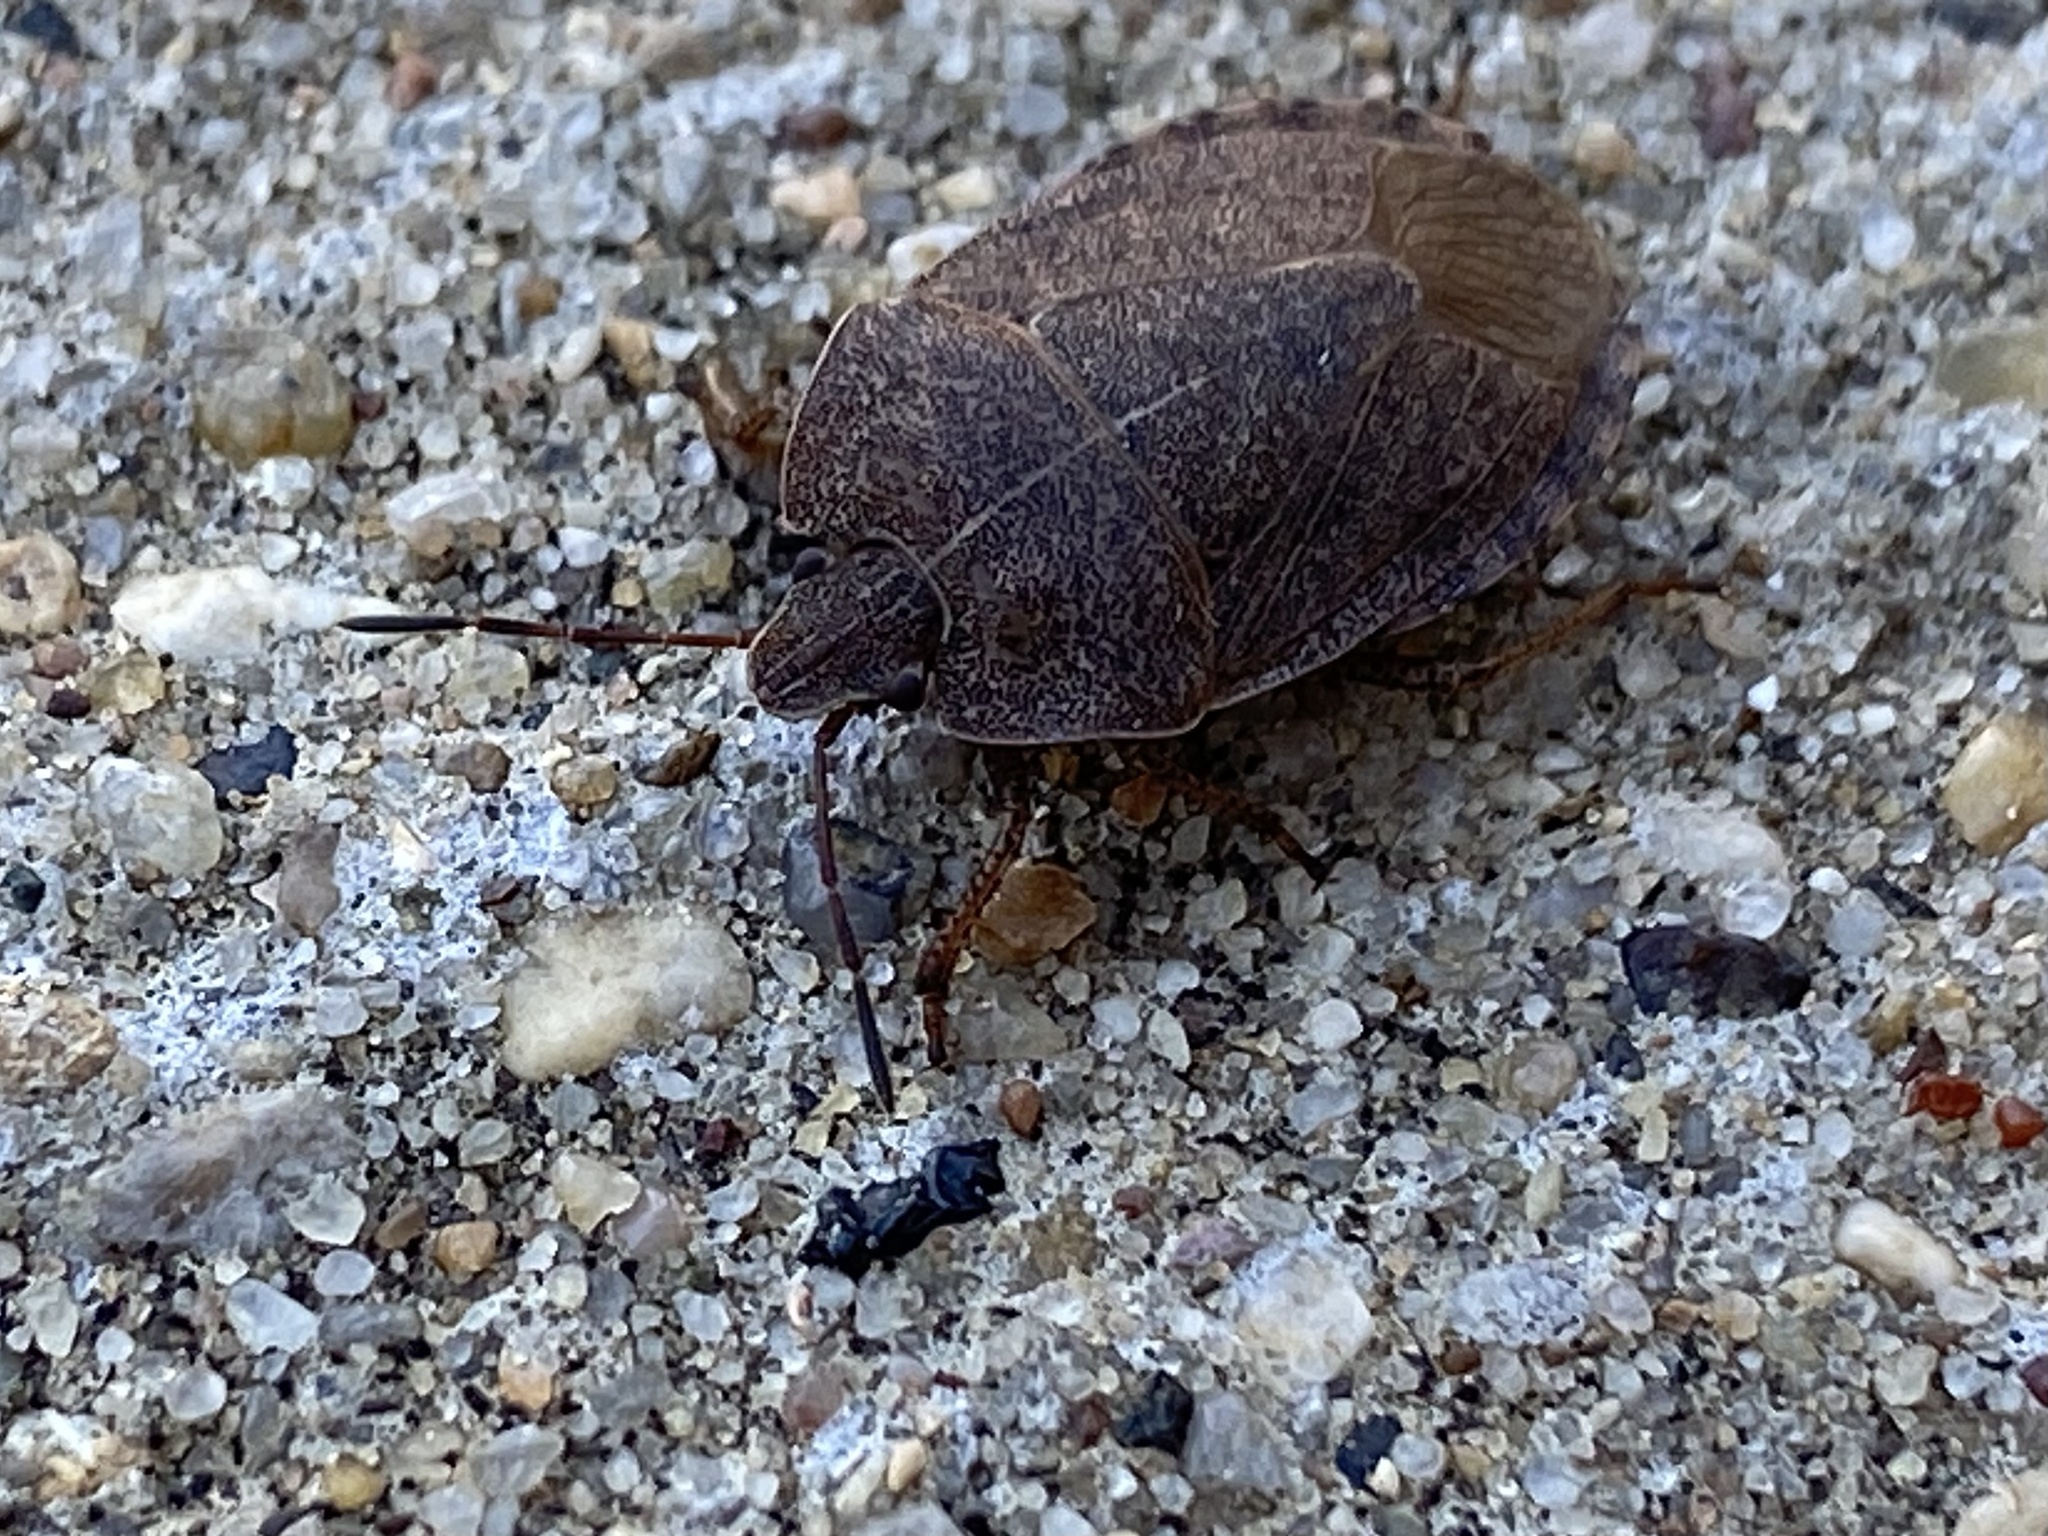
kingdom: Animalia
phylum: Arthropoda
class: Insecta
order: Hemiptera
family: Pentatomidae
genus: Menecles
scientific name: Menecles insertus
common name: Elf shoe stink bug
